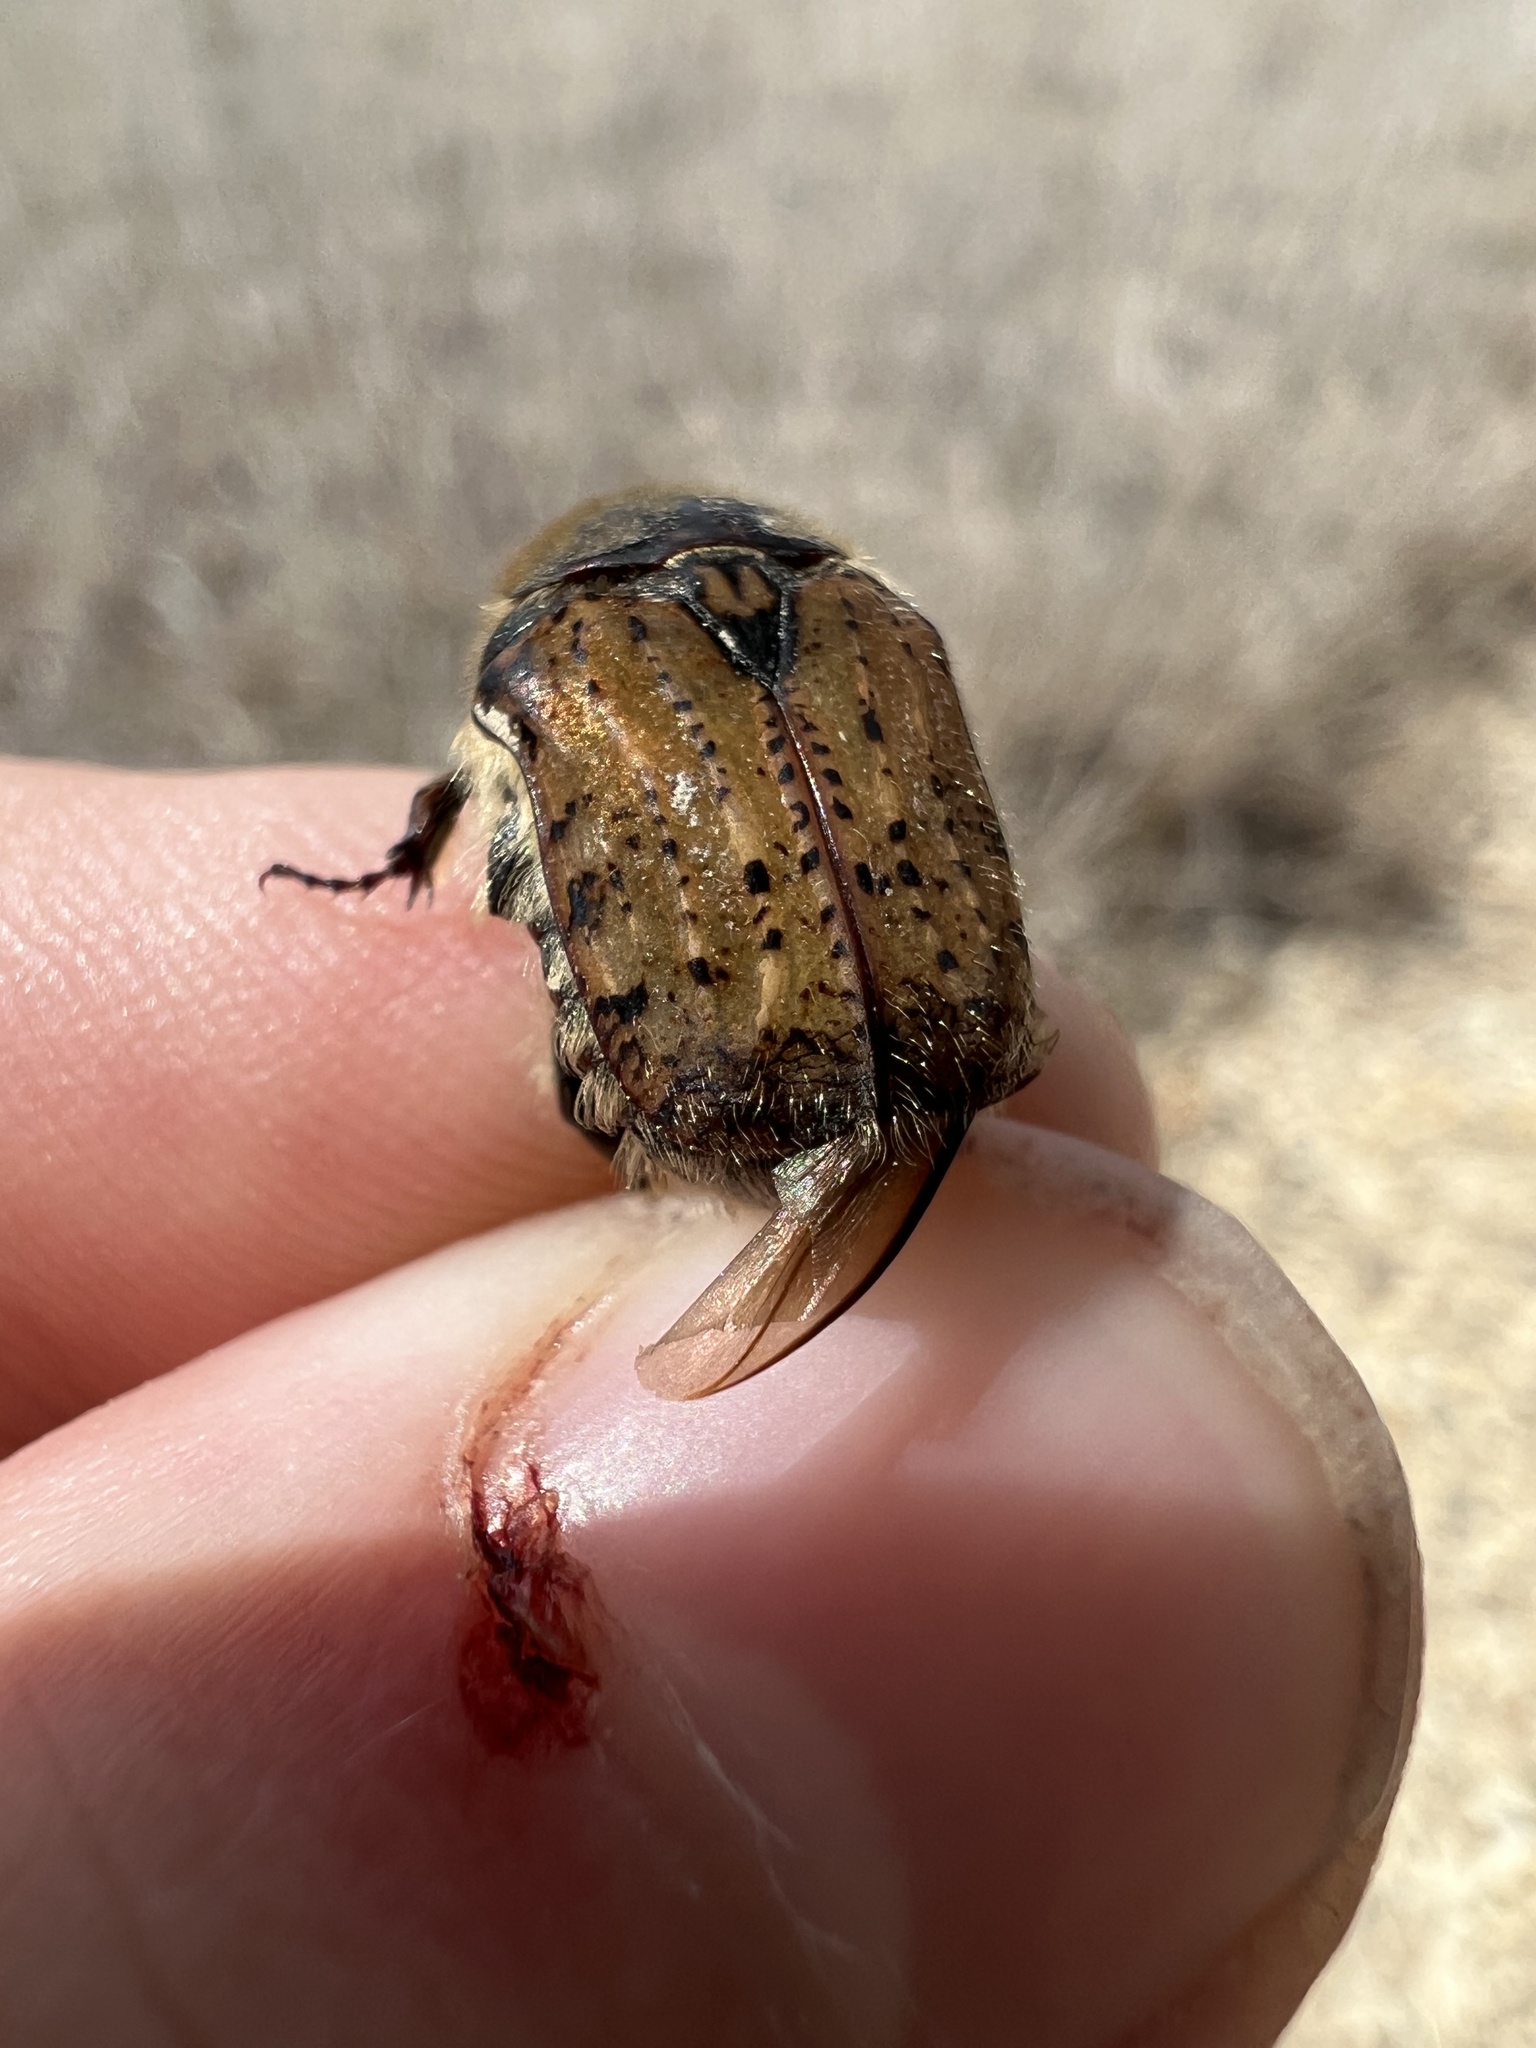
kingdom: Animalia
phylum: Arthropoda
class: Insecta
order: Coleoptera
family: Scarabaeidae
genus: Euphoria
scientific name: Euphoria inda
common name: Bumble flower beetle
